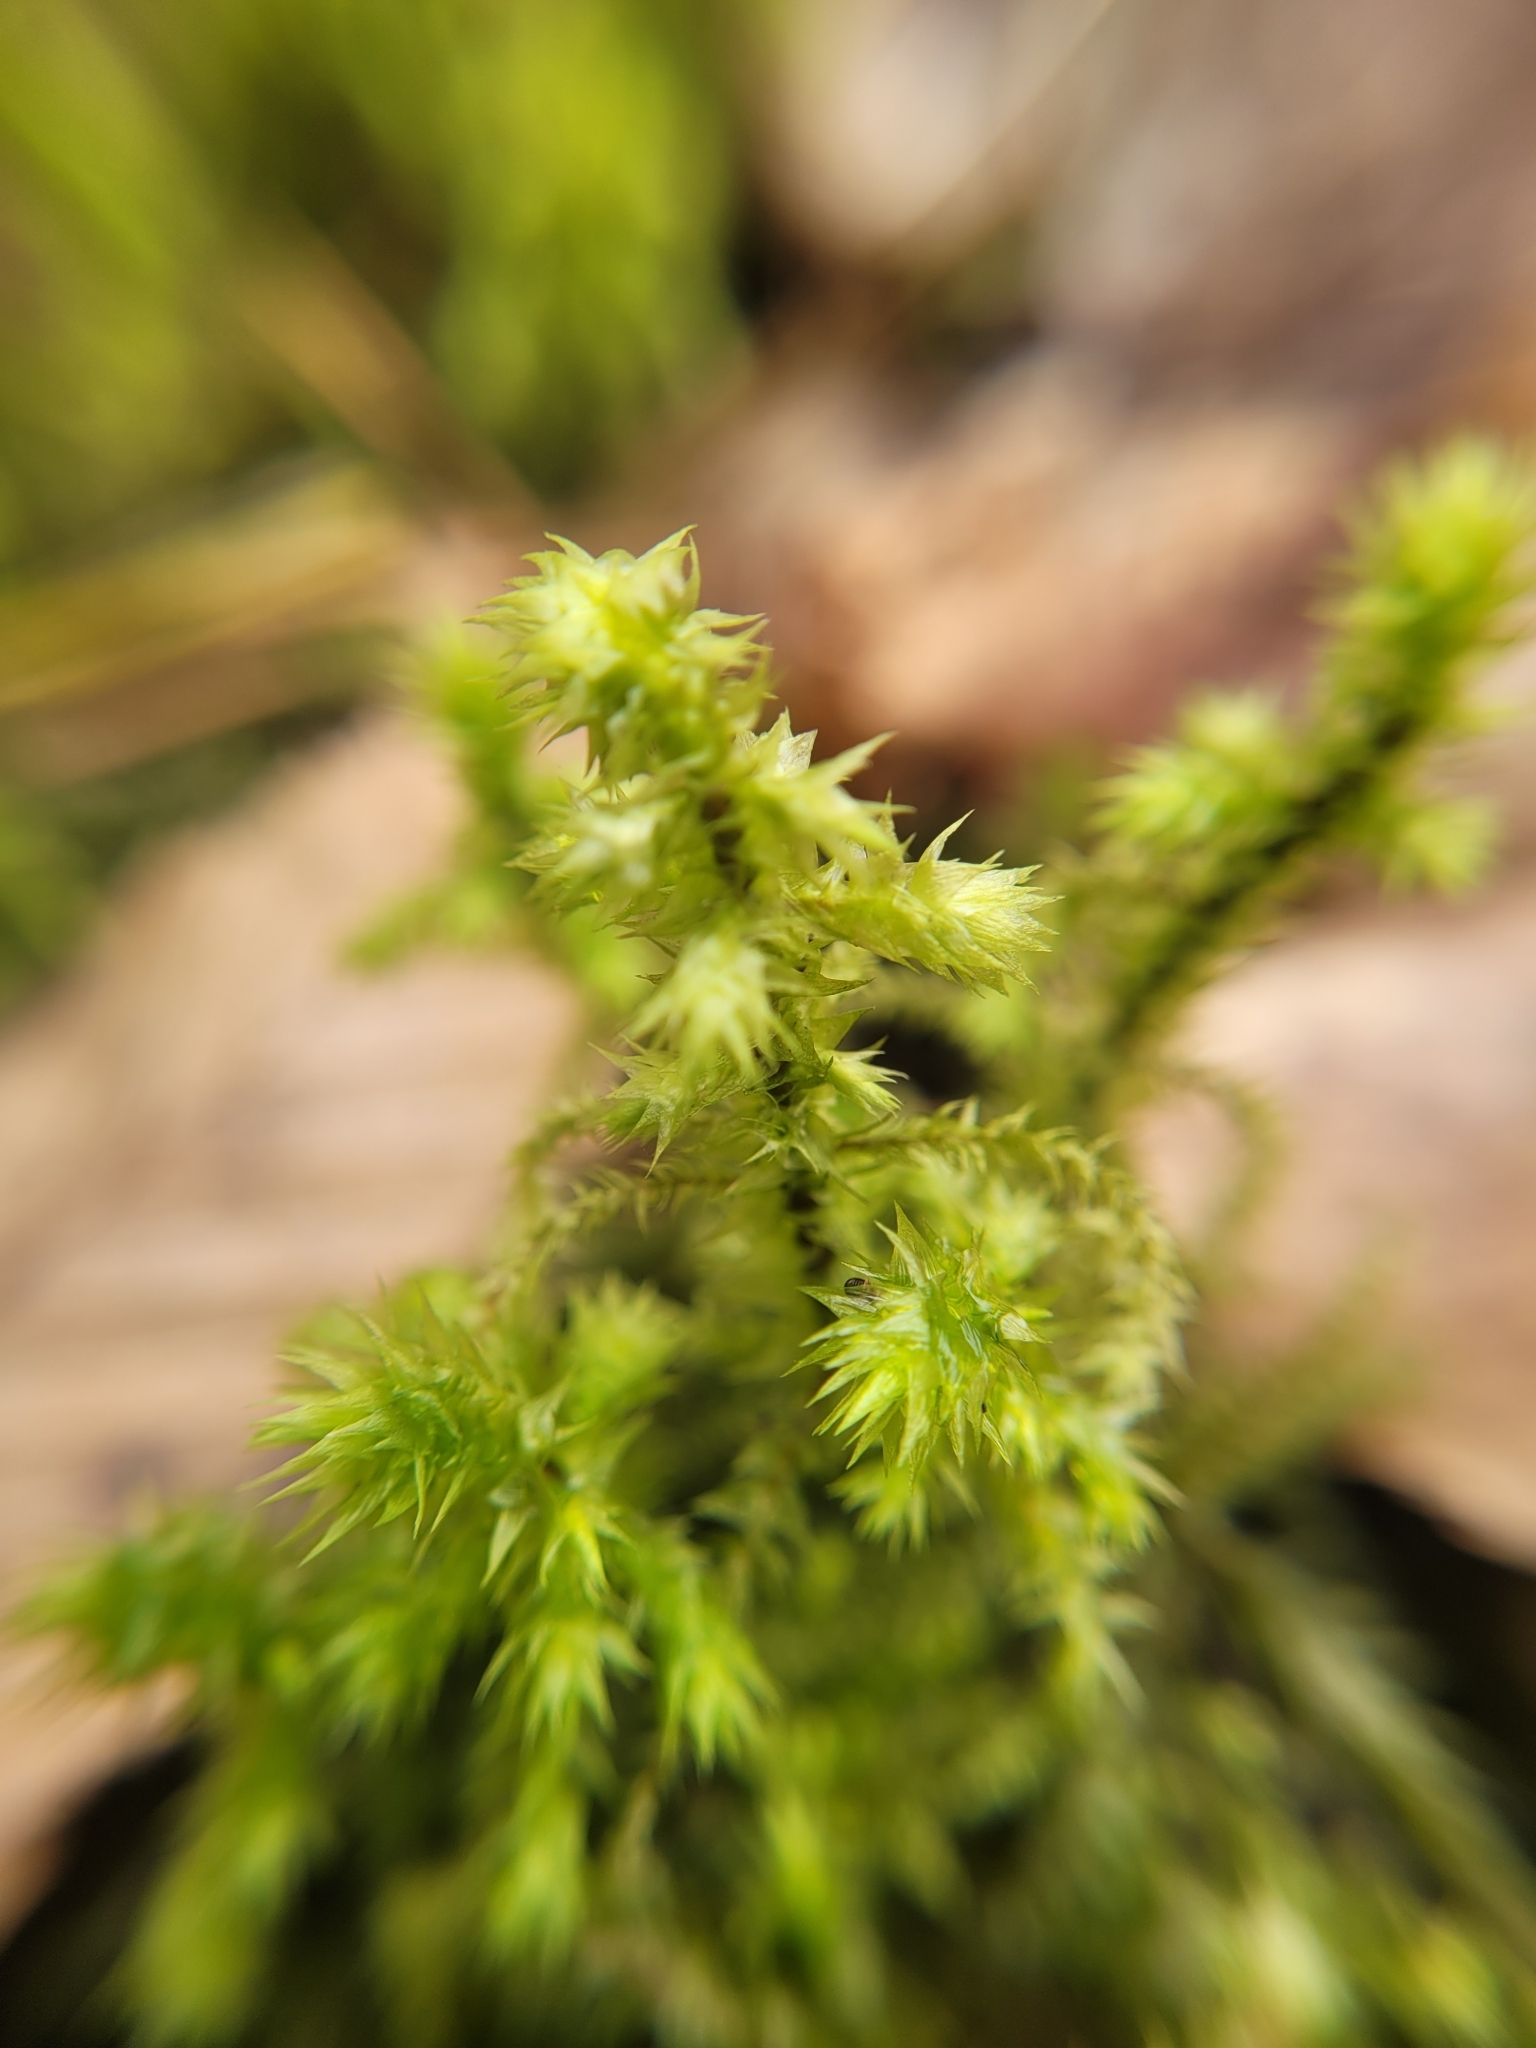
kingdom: Plantae
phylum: Bryophyta
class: Bryopsida
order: Hypnales
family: Hylocomiaceae
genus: Hylocomiadelphus
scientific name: Hylocomiadelphus triquetrus
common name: Rough goose neck moss
